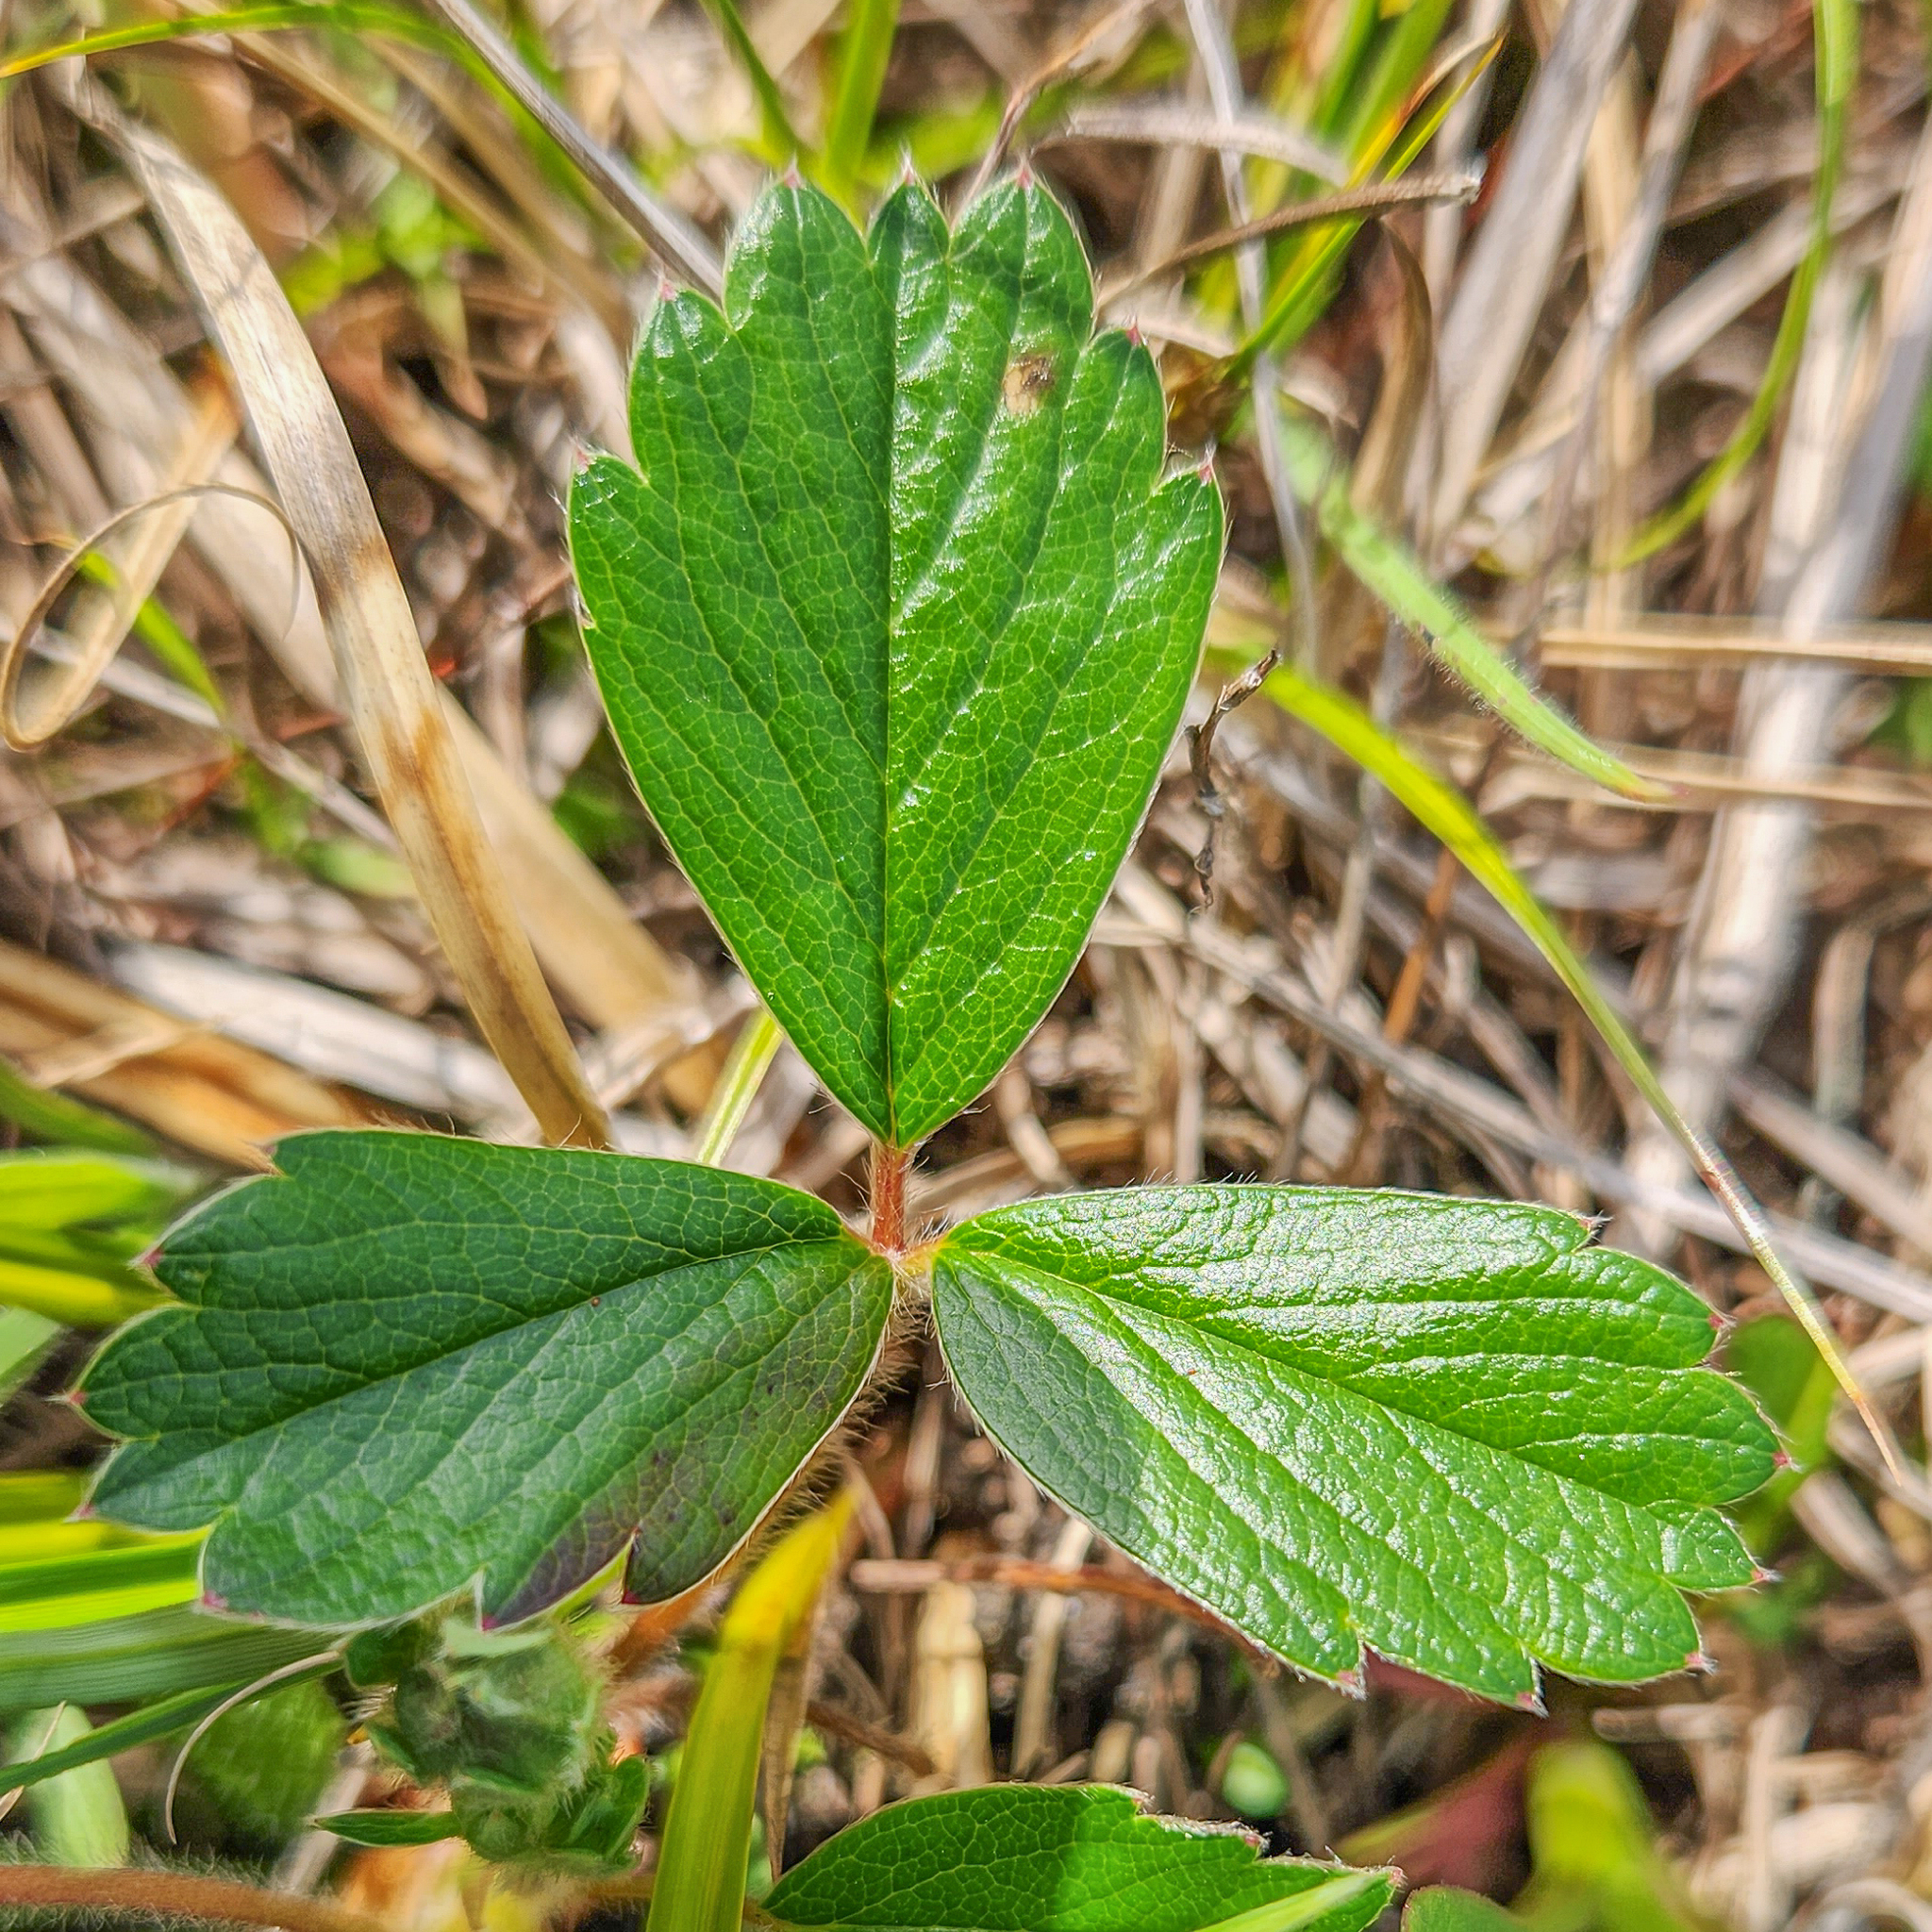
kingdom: Plantae
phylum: Tracheophyta
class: Magnoliopsida
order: Rosales
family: Rosaceae
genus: Fragaria
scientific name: Fragaria chiloensis
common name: Beach strawberry
